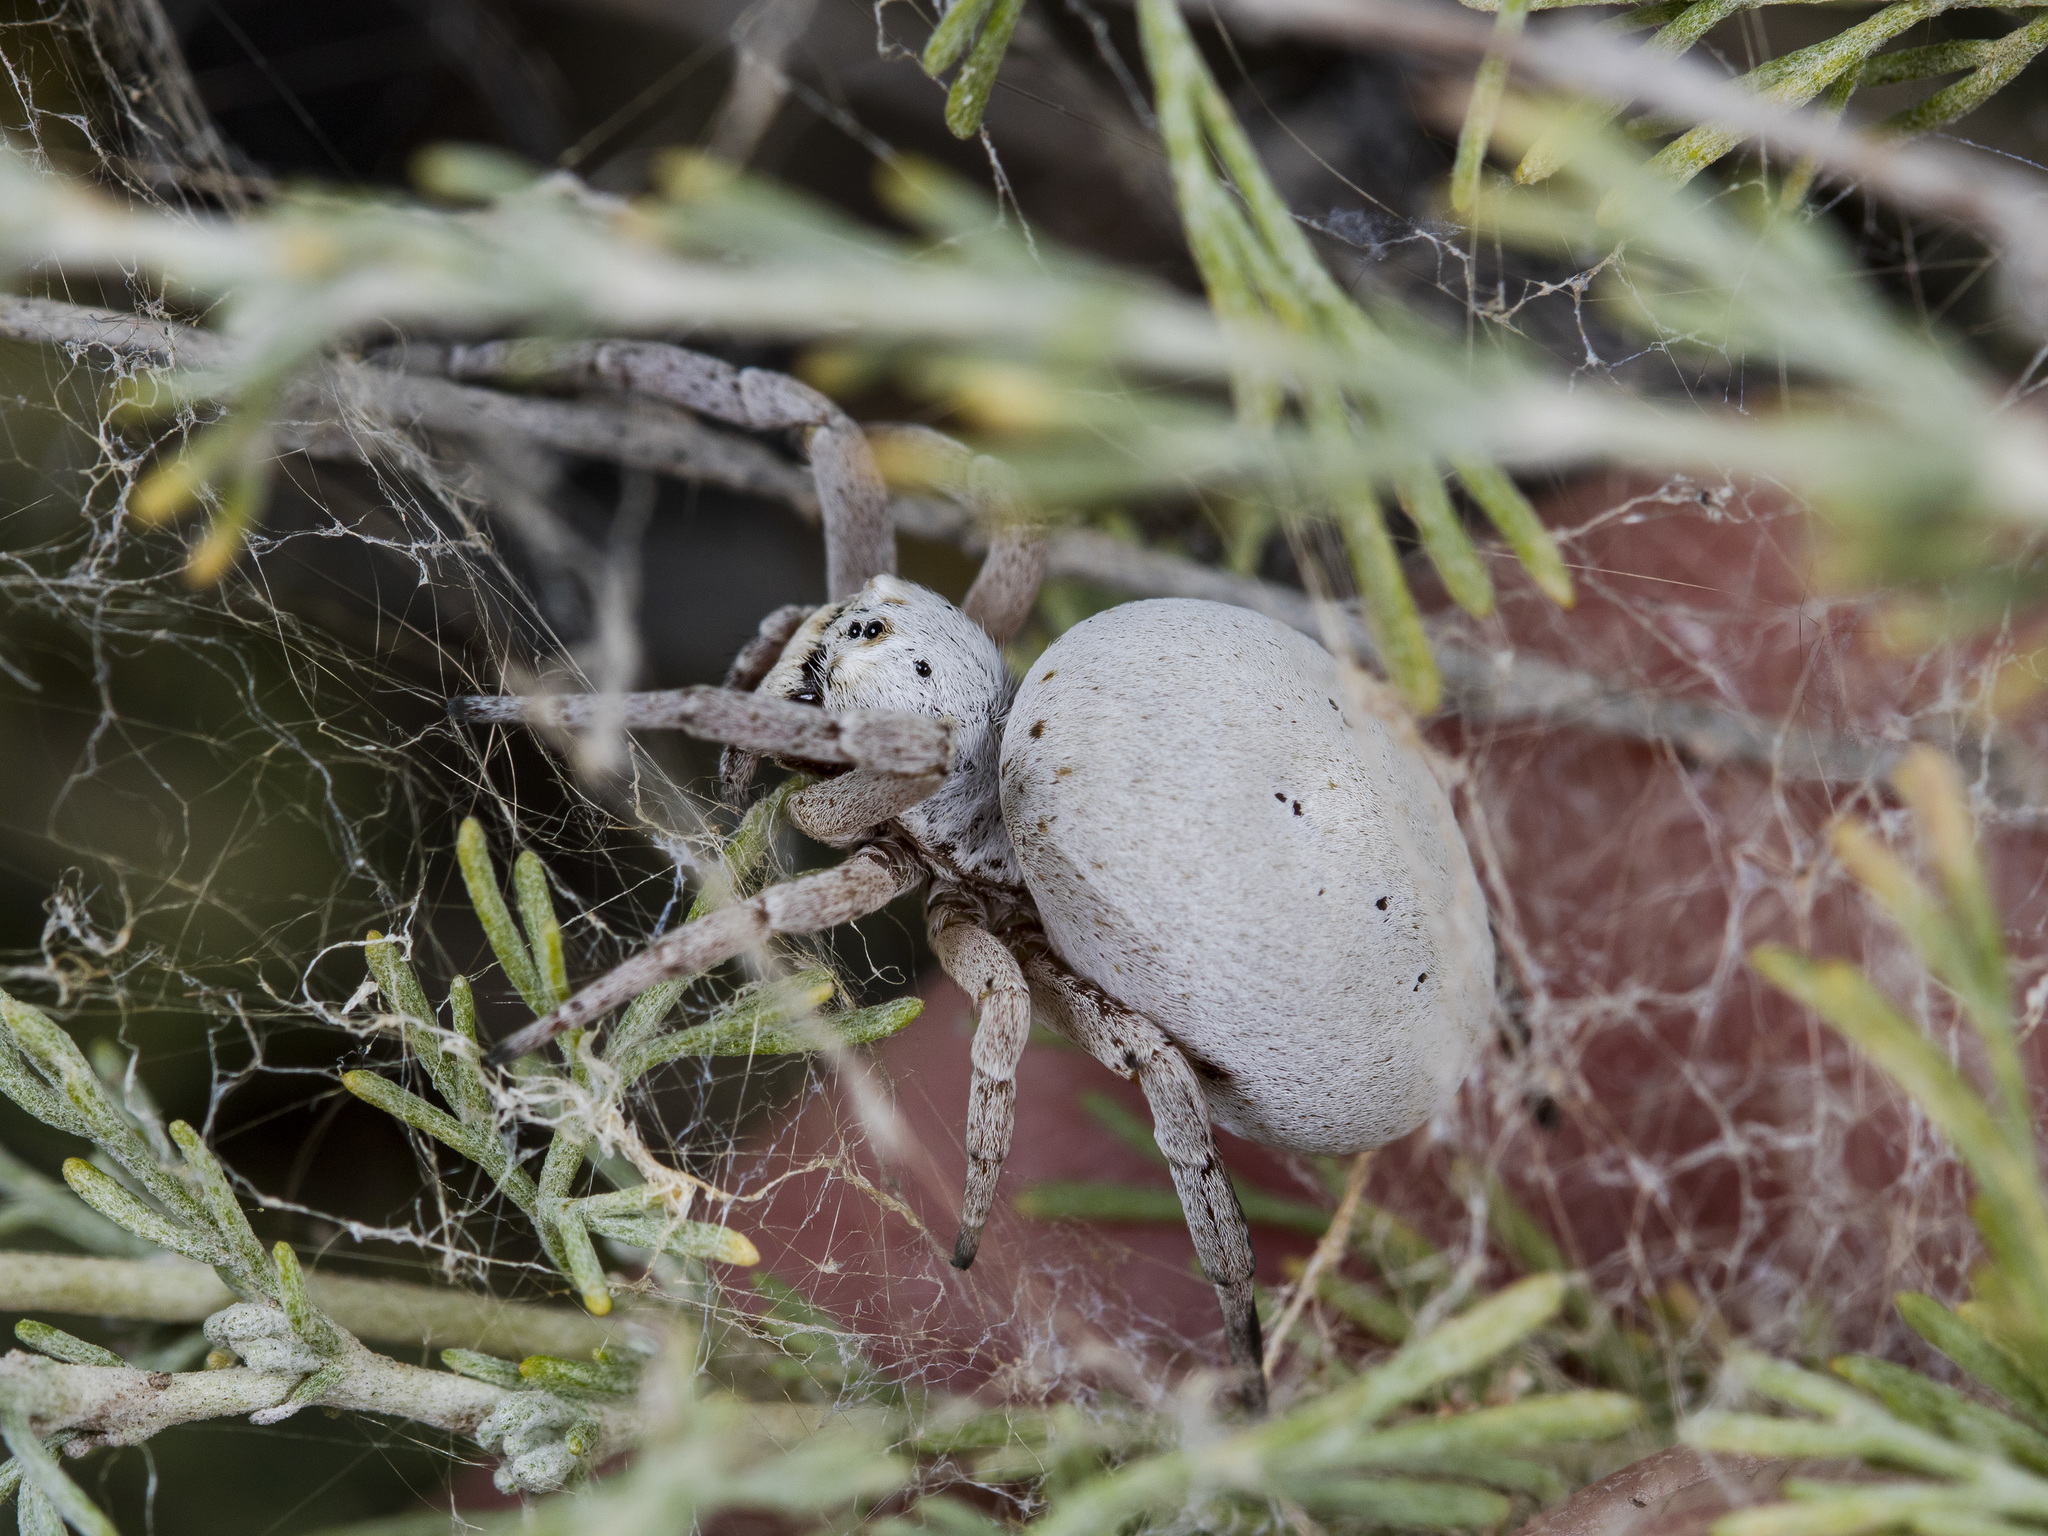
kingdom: Animalia
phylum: Arthropoda
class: Arachnida
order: Araneae
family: Eresidae
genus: Stegodyphus
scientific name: Stegodyphus lineatus
